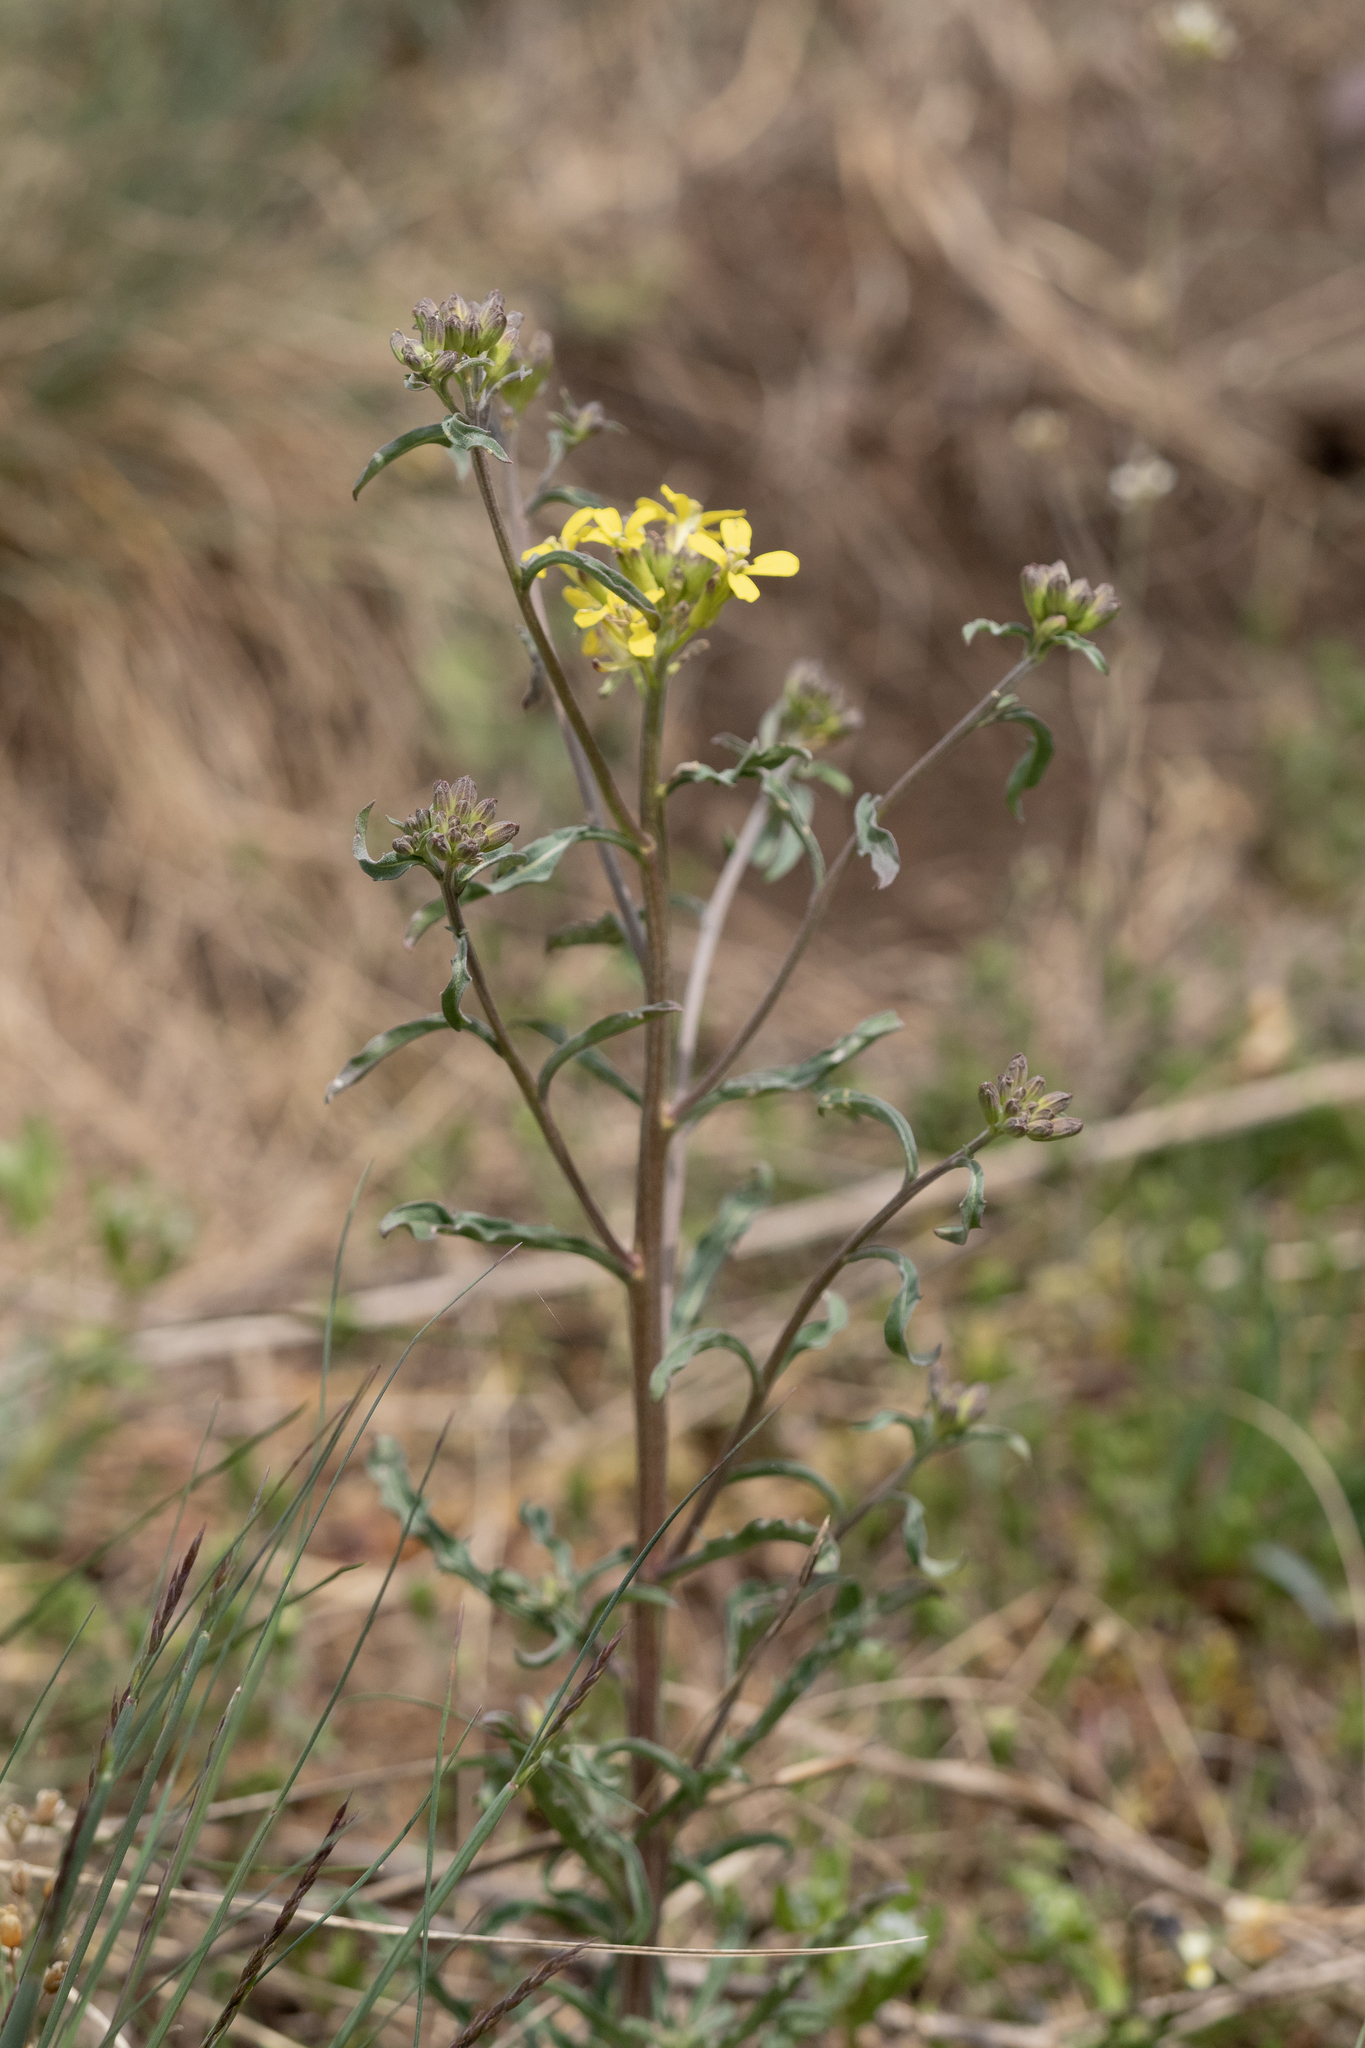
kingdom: Plantae
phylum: Tracheophyta
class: Magnoliopsida
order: Brassicales
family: Brassicaceae
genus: Erysimum
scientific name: Erysimum crepidifolium
